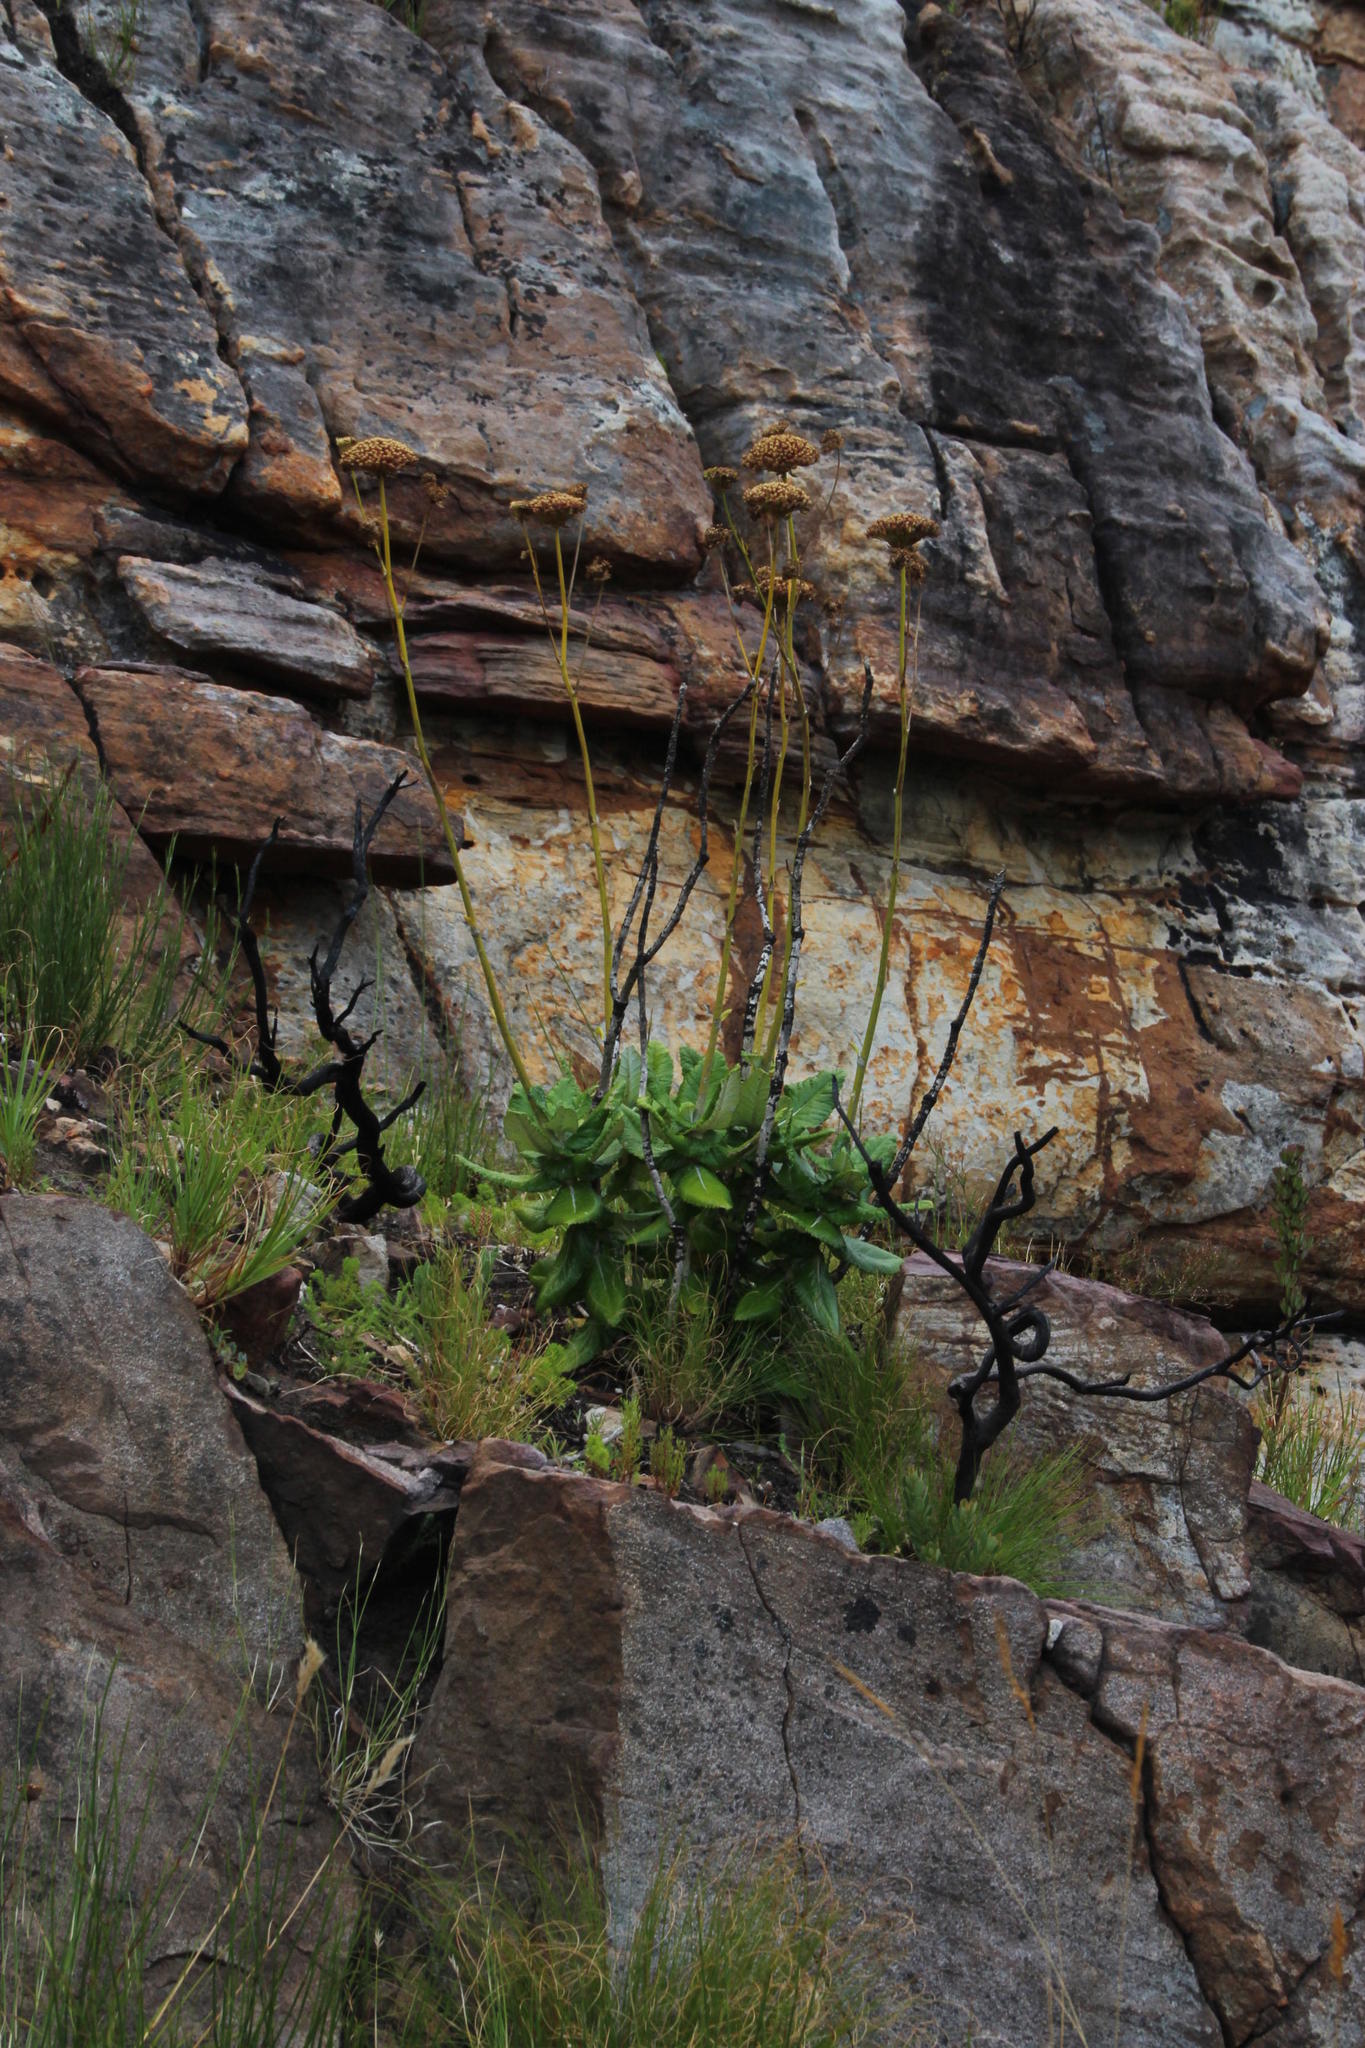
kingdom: Plantae
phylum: Tracheophyta
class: Magnoliopsida
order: Apiales
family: Apiaceae
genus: Hermas
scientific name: Hermas villosa
